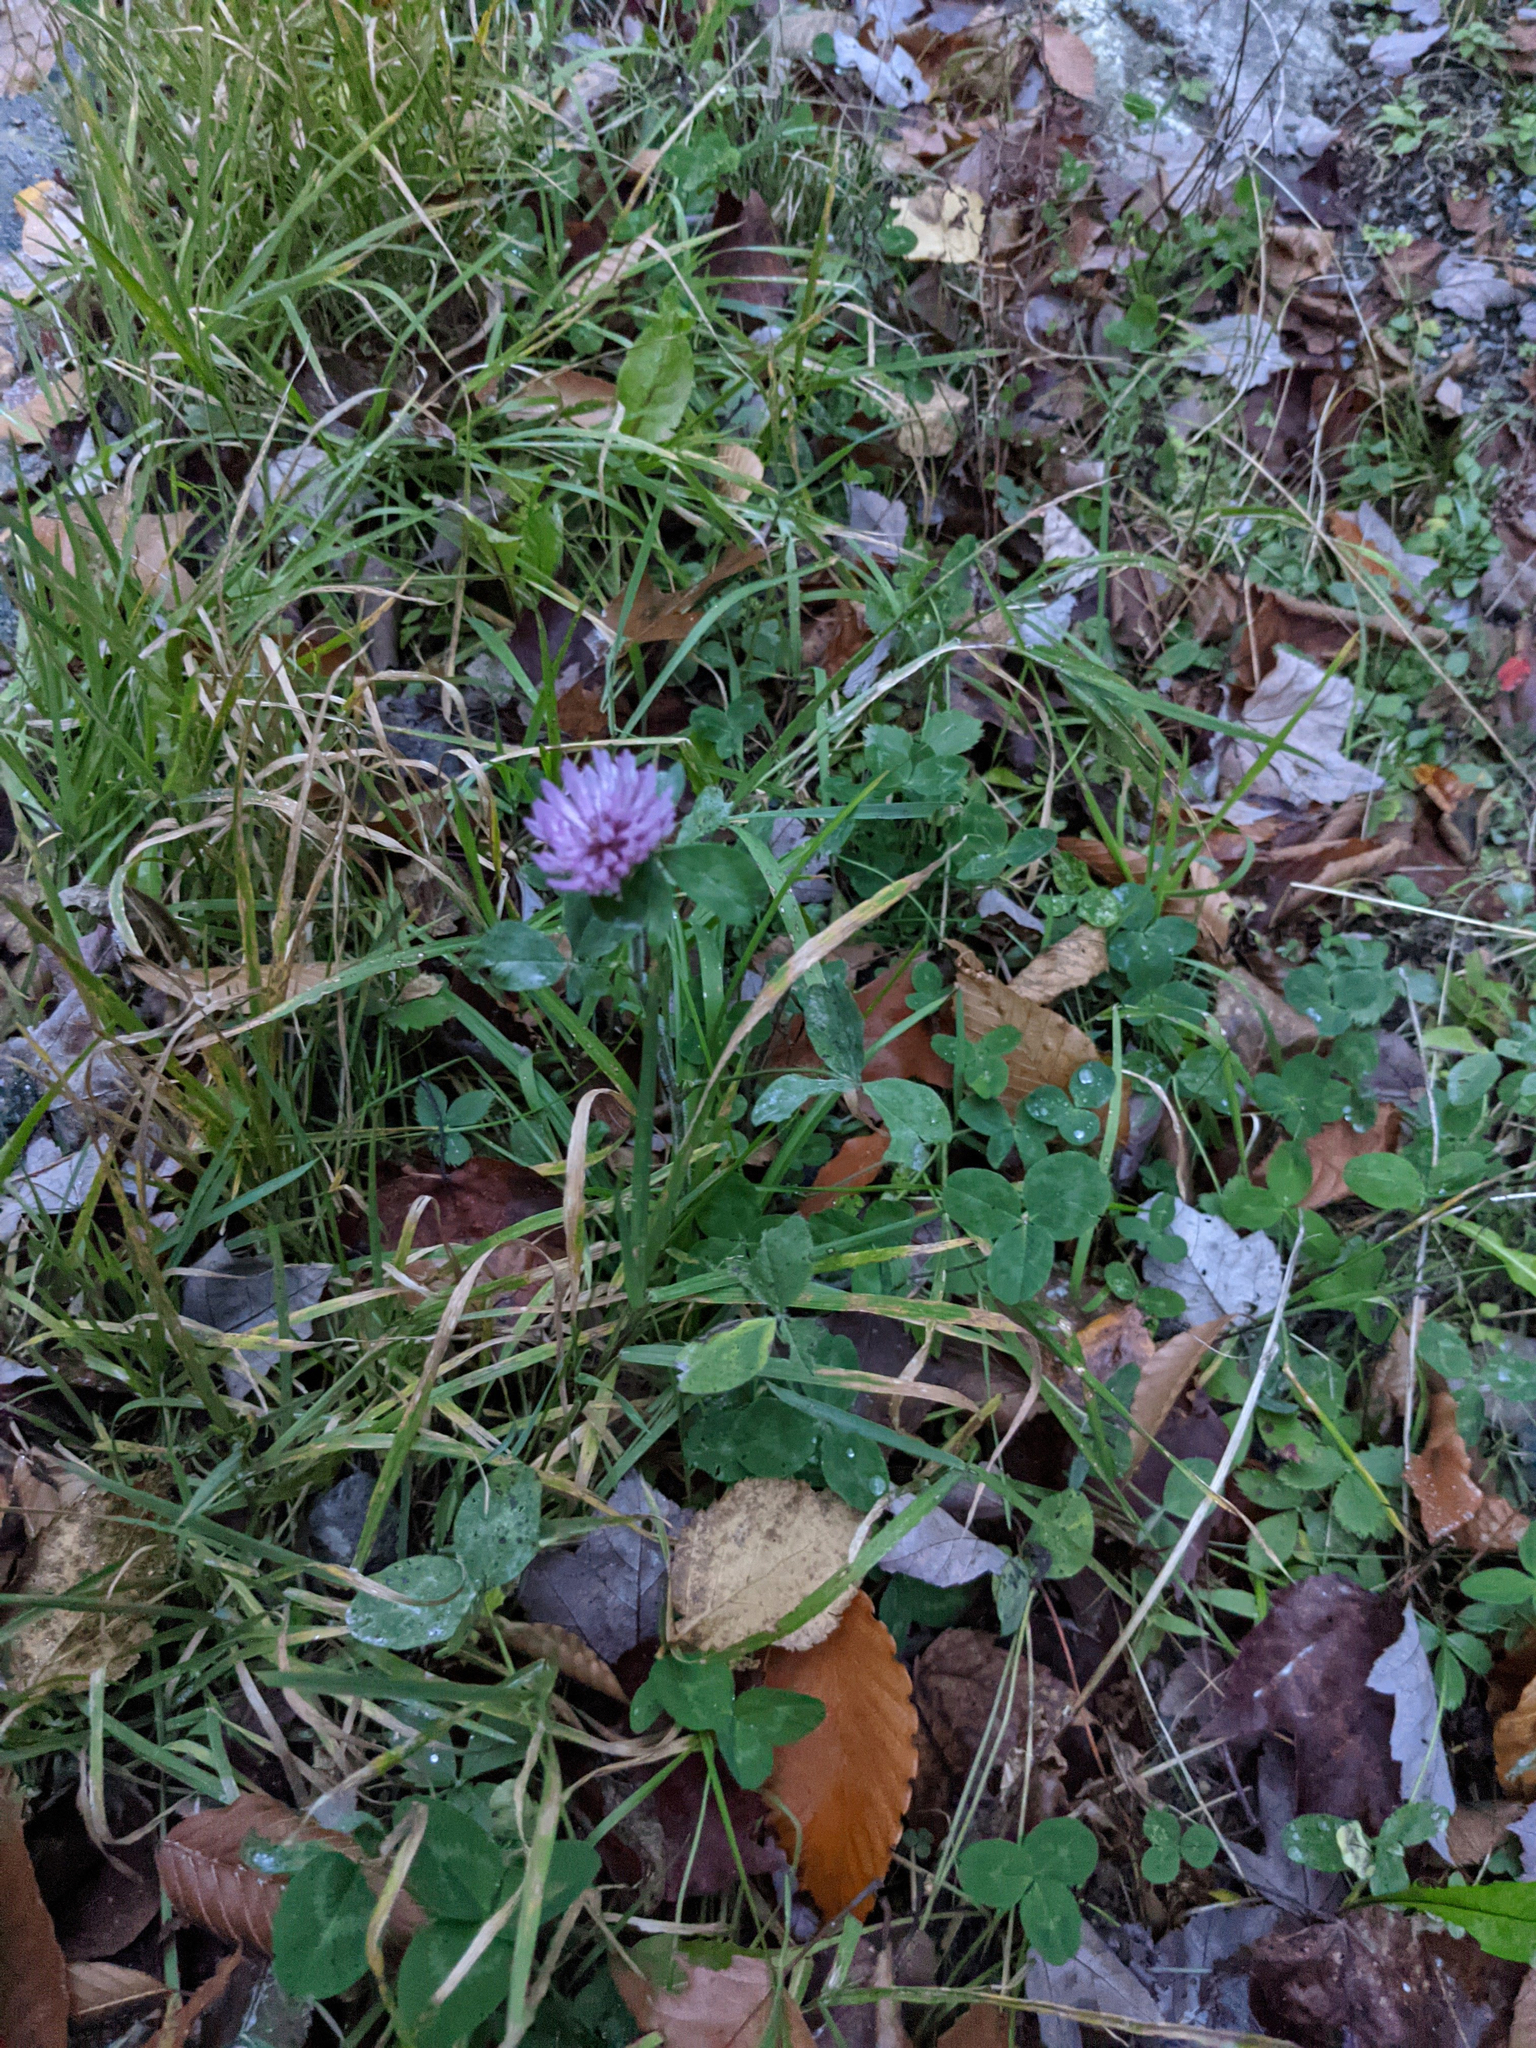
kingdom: Plantae
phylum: Tracheophyta
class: Magnoliopsida
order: Fabales
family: Fabaceae
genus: Trifolium
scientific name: Trifolium pratense
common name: Red clover
